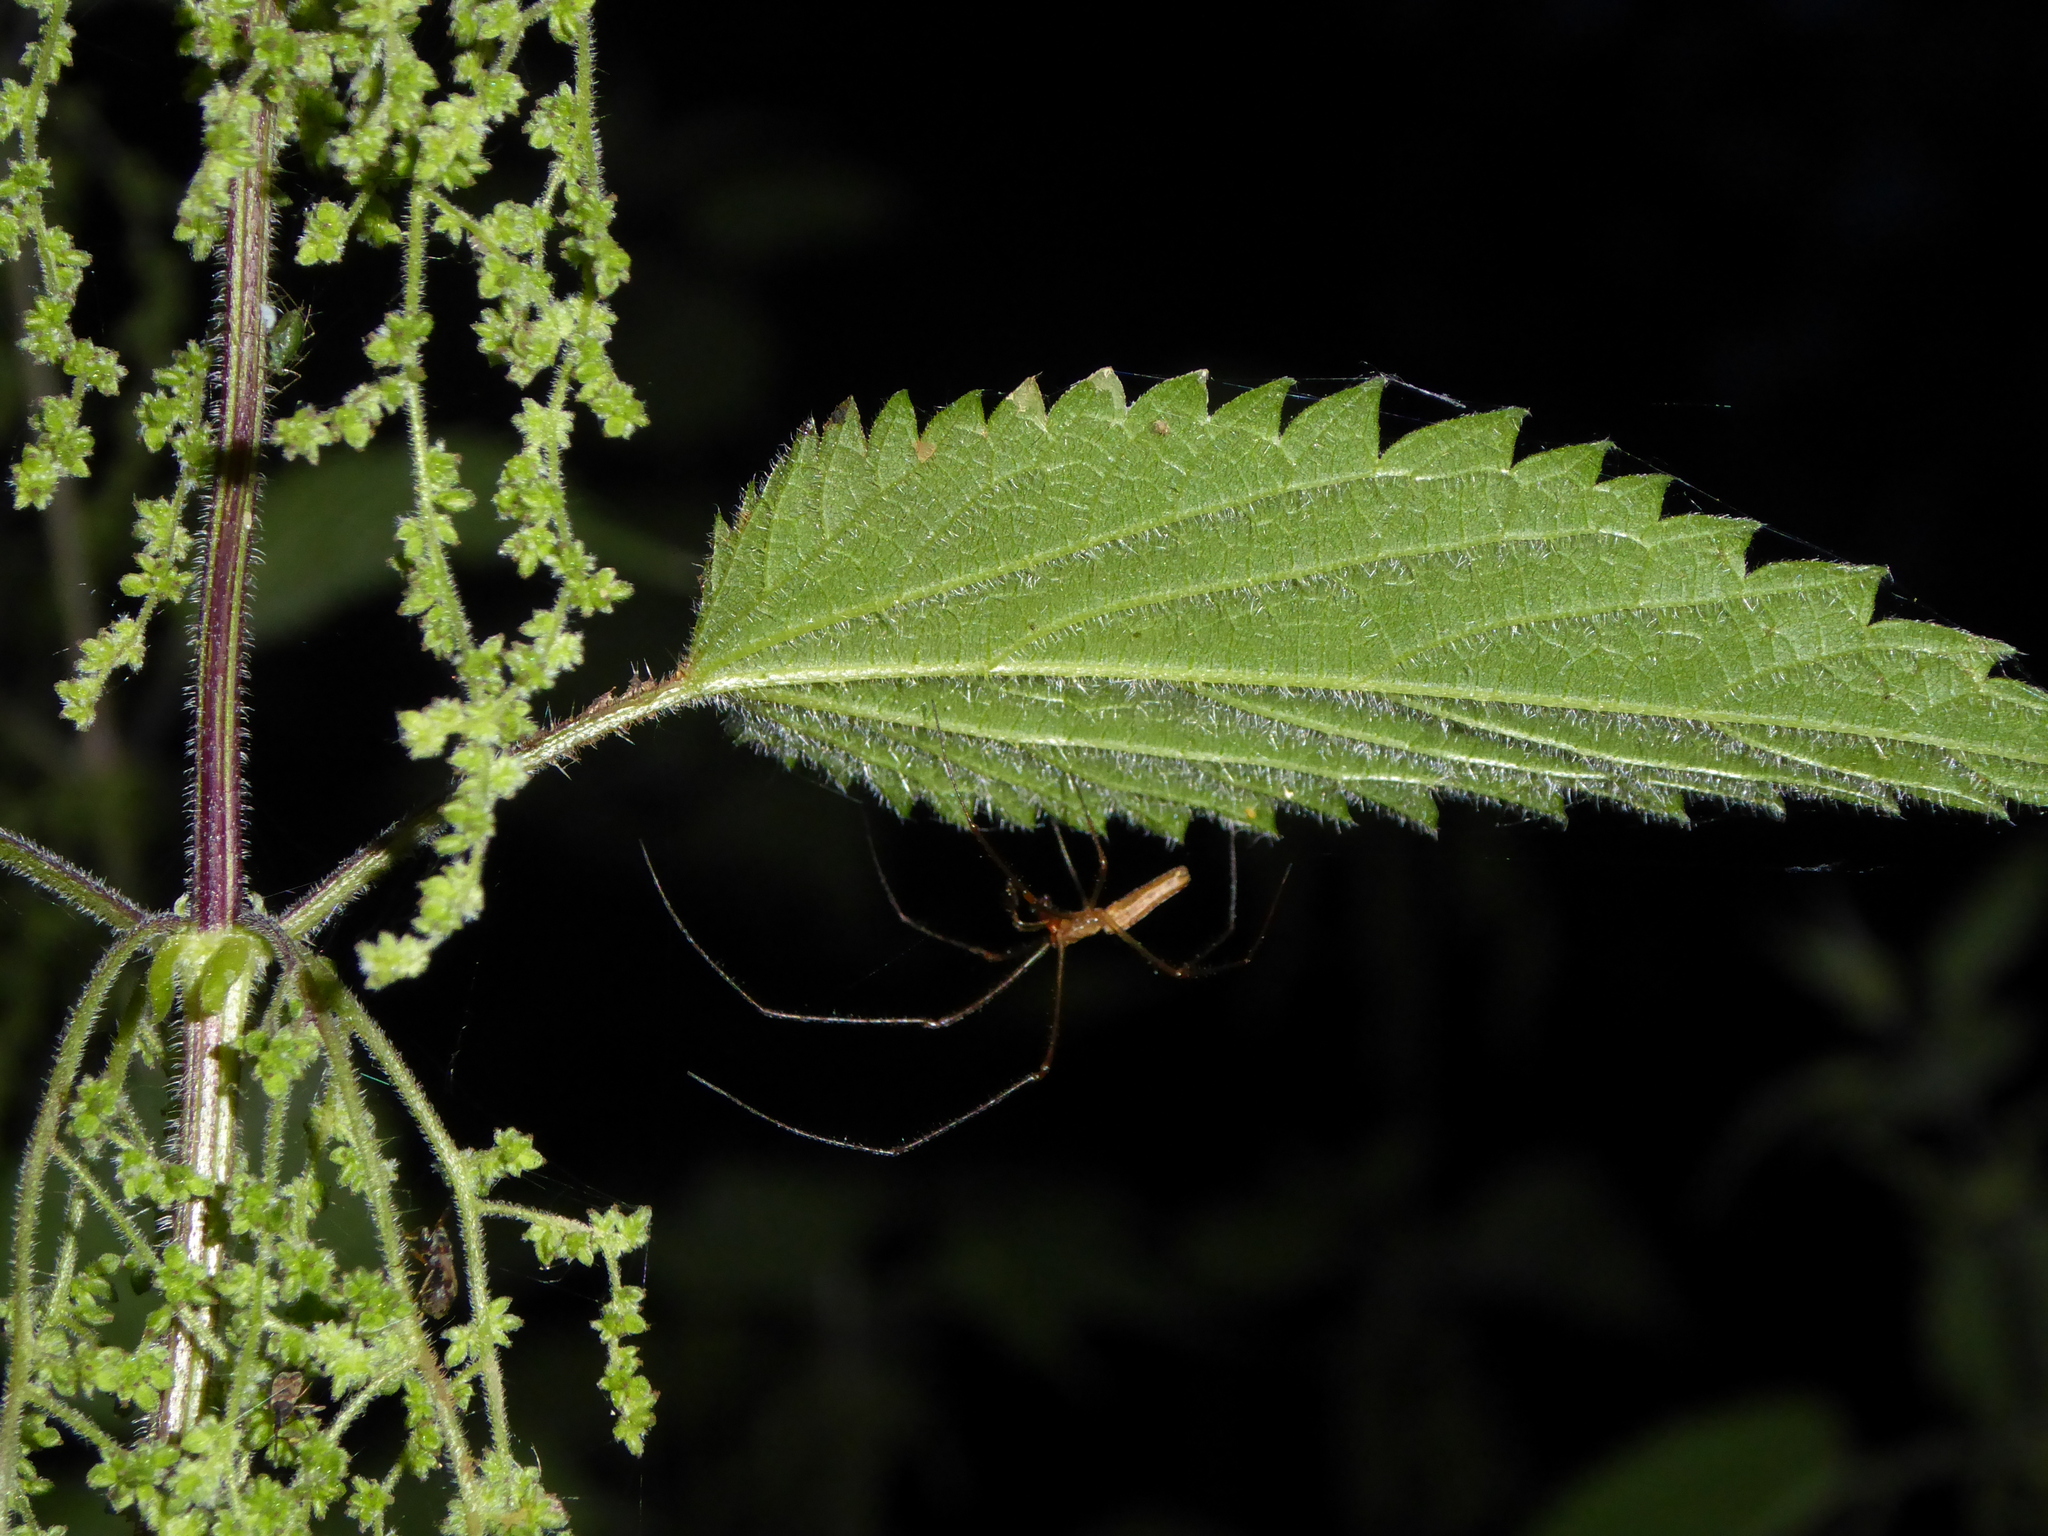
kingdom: Plantae
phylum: Tracheophyta
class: Magnoliopsida
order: Rosales
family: Urticaceae
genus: Urtica
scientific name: Urtica dioica
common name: Common nettle
